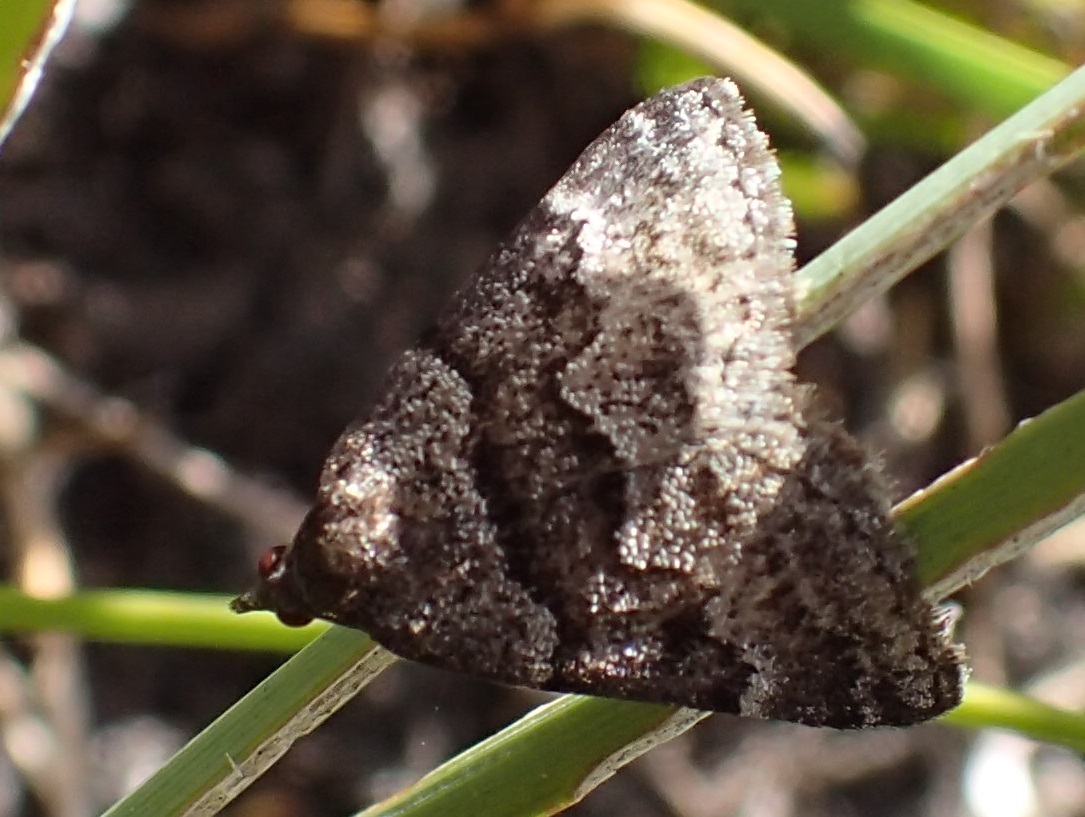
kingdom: Animalia
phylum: Arthropoda
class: Insecta
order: Lepidoptera
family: Geometridae
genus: Dichromodes
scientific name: Dichromodes ainaria
